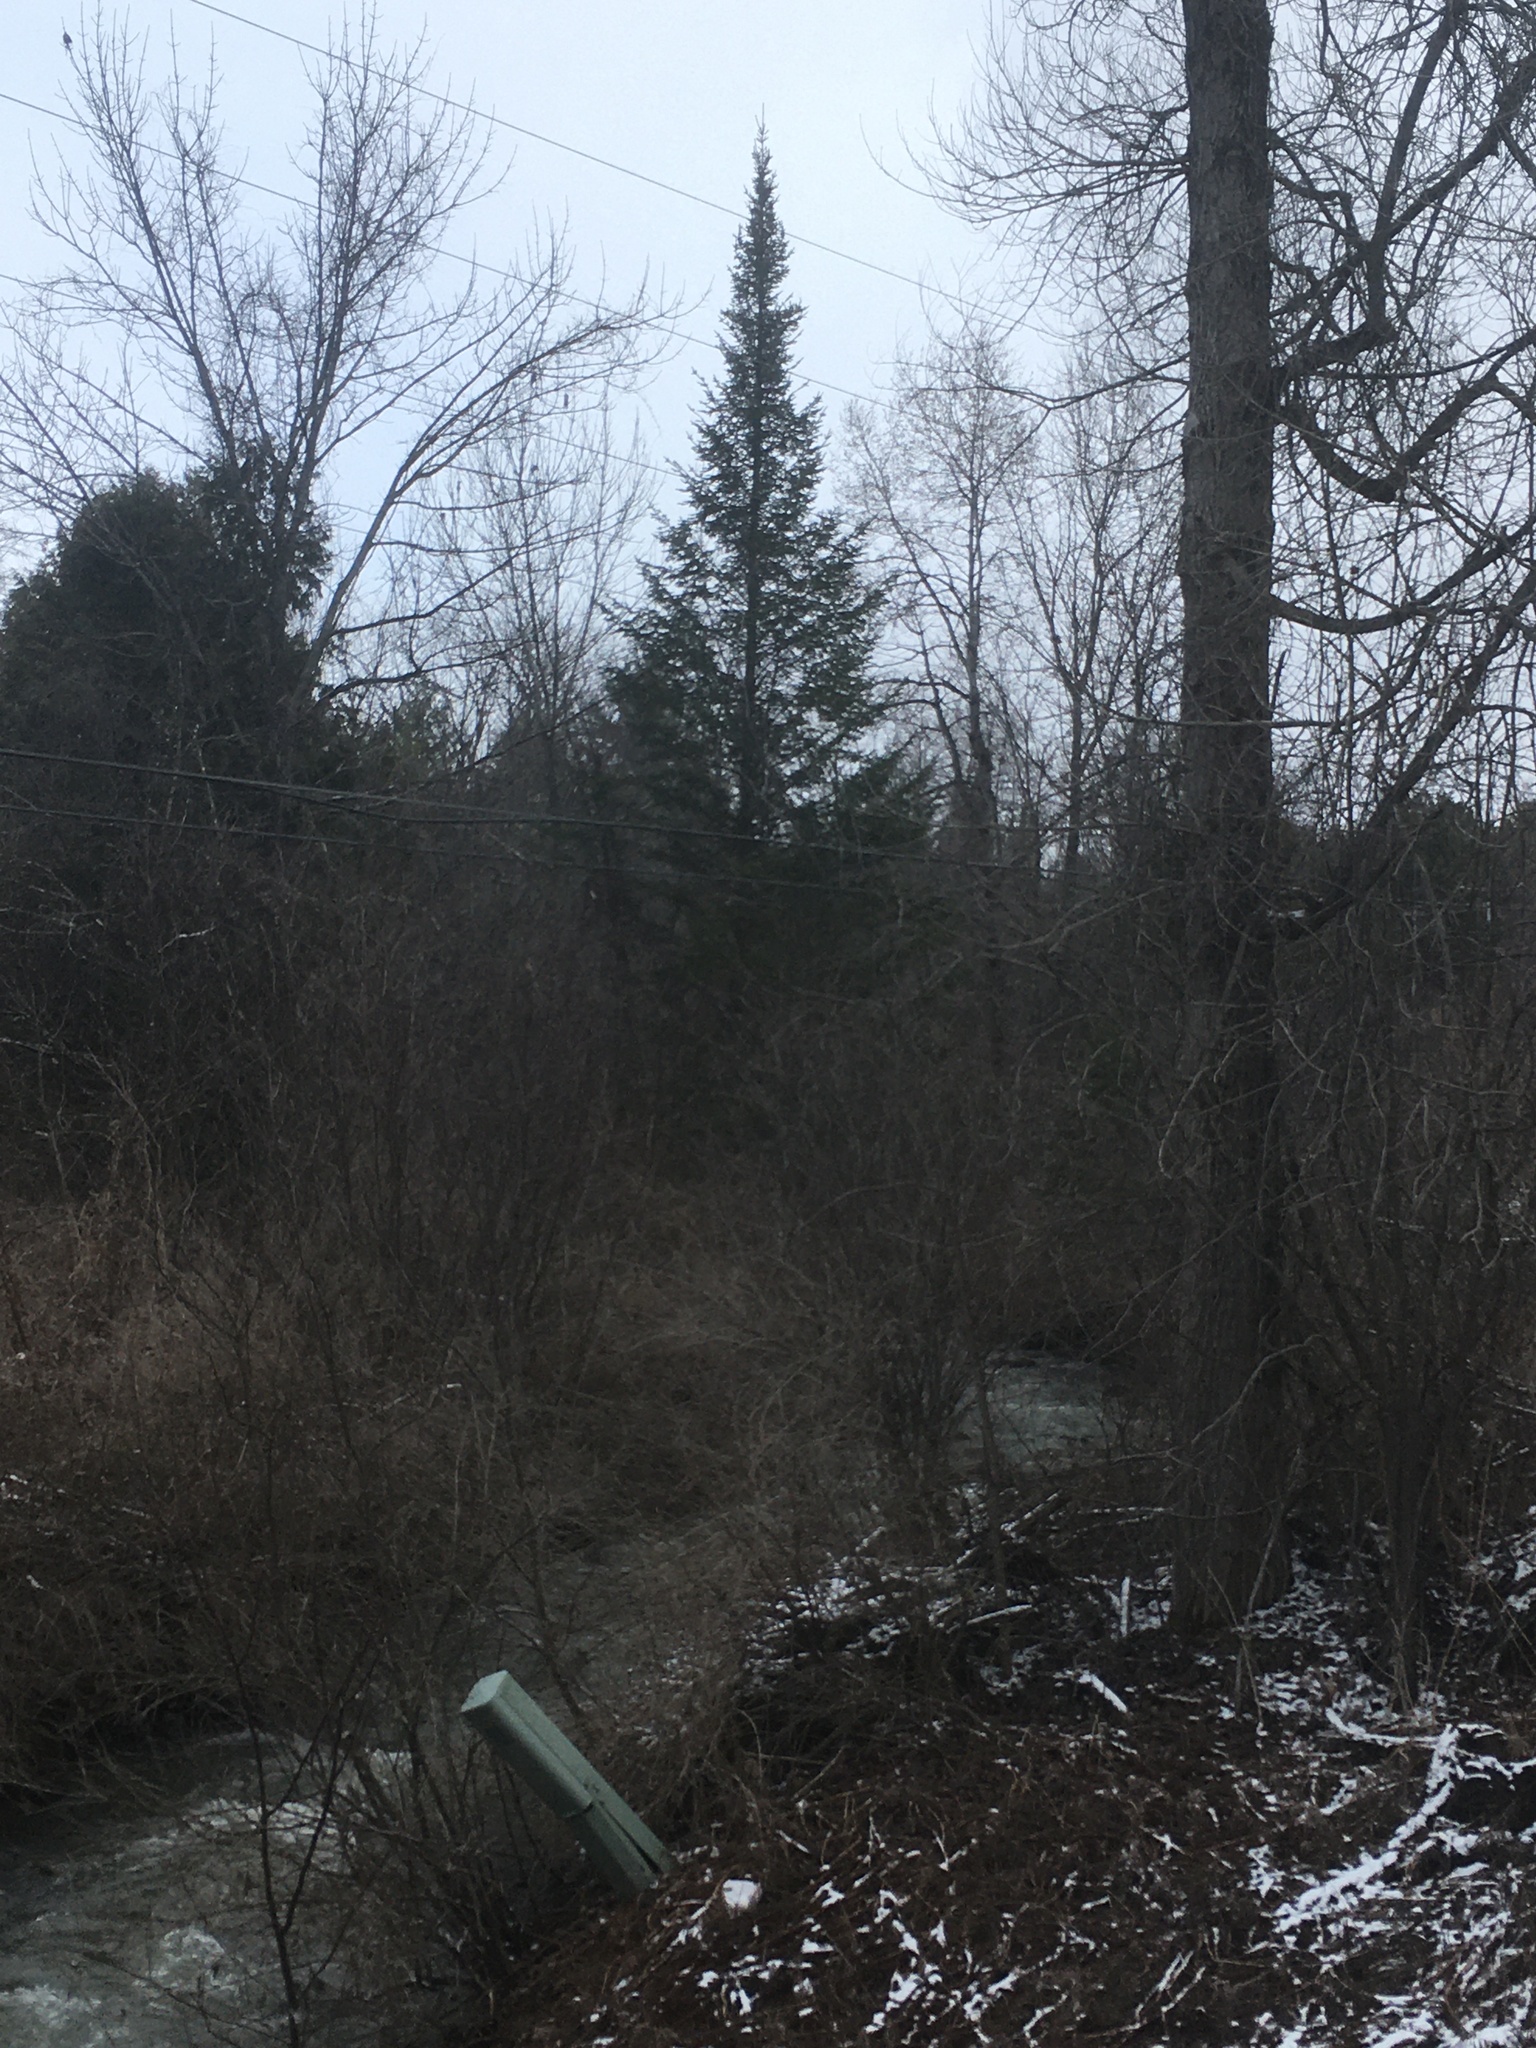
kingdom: Plantae
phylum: Tracheophyta
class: Pinopsida
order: Pinales
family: Pinaceae
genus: Abies
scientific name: Abies balsamea
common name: Balsam fir
